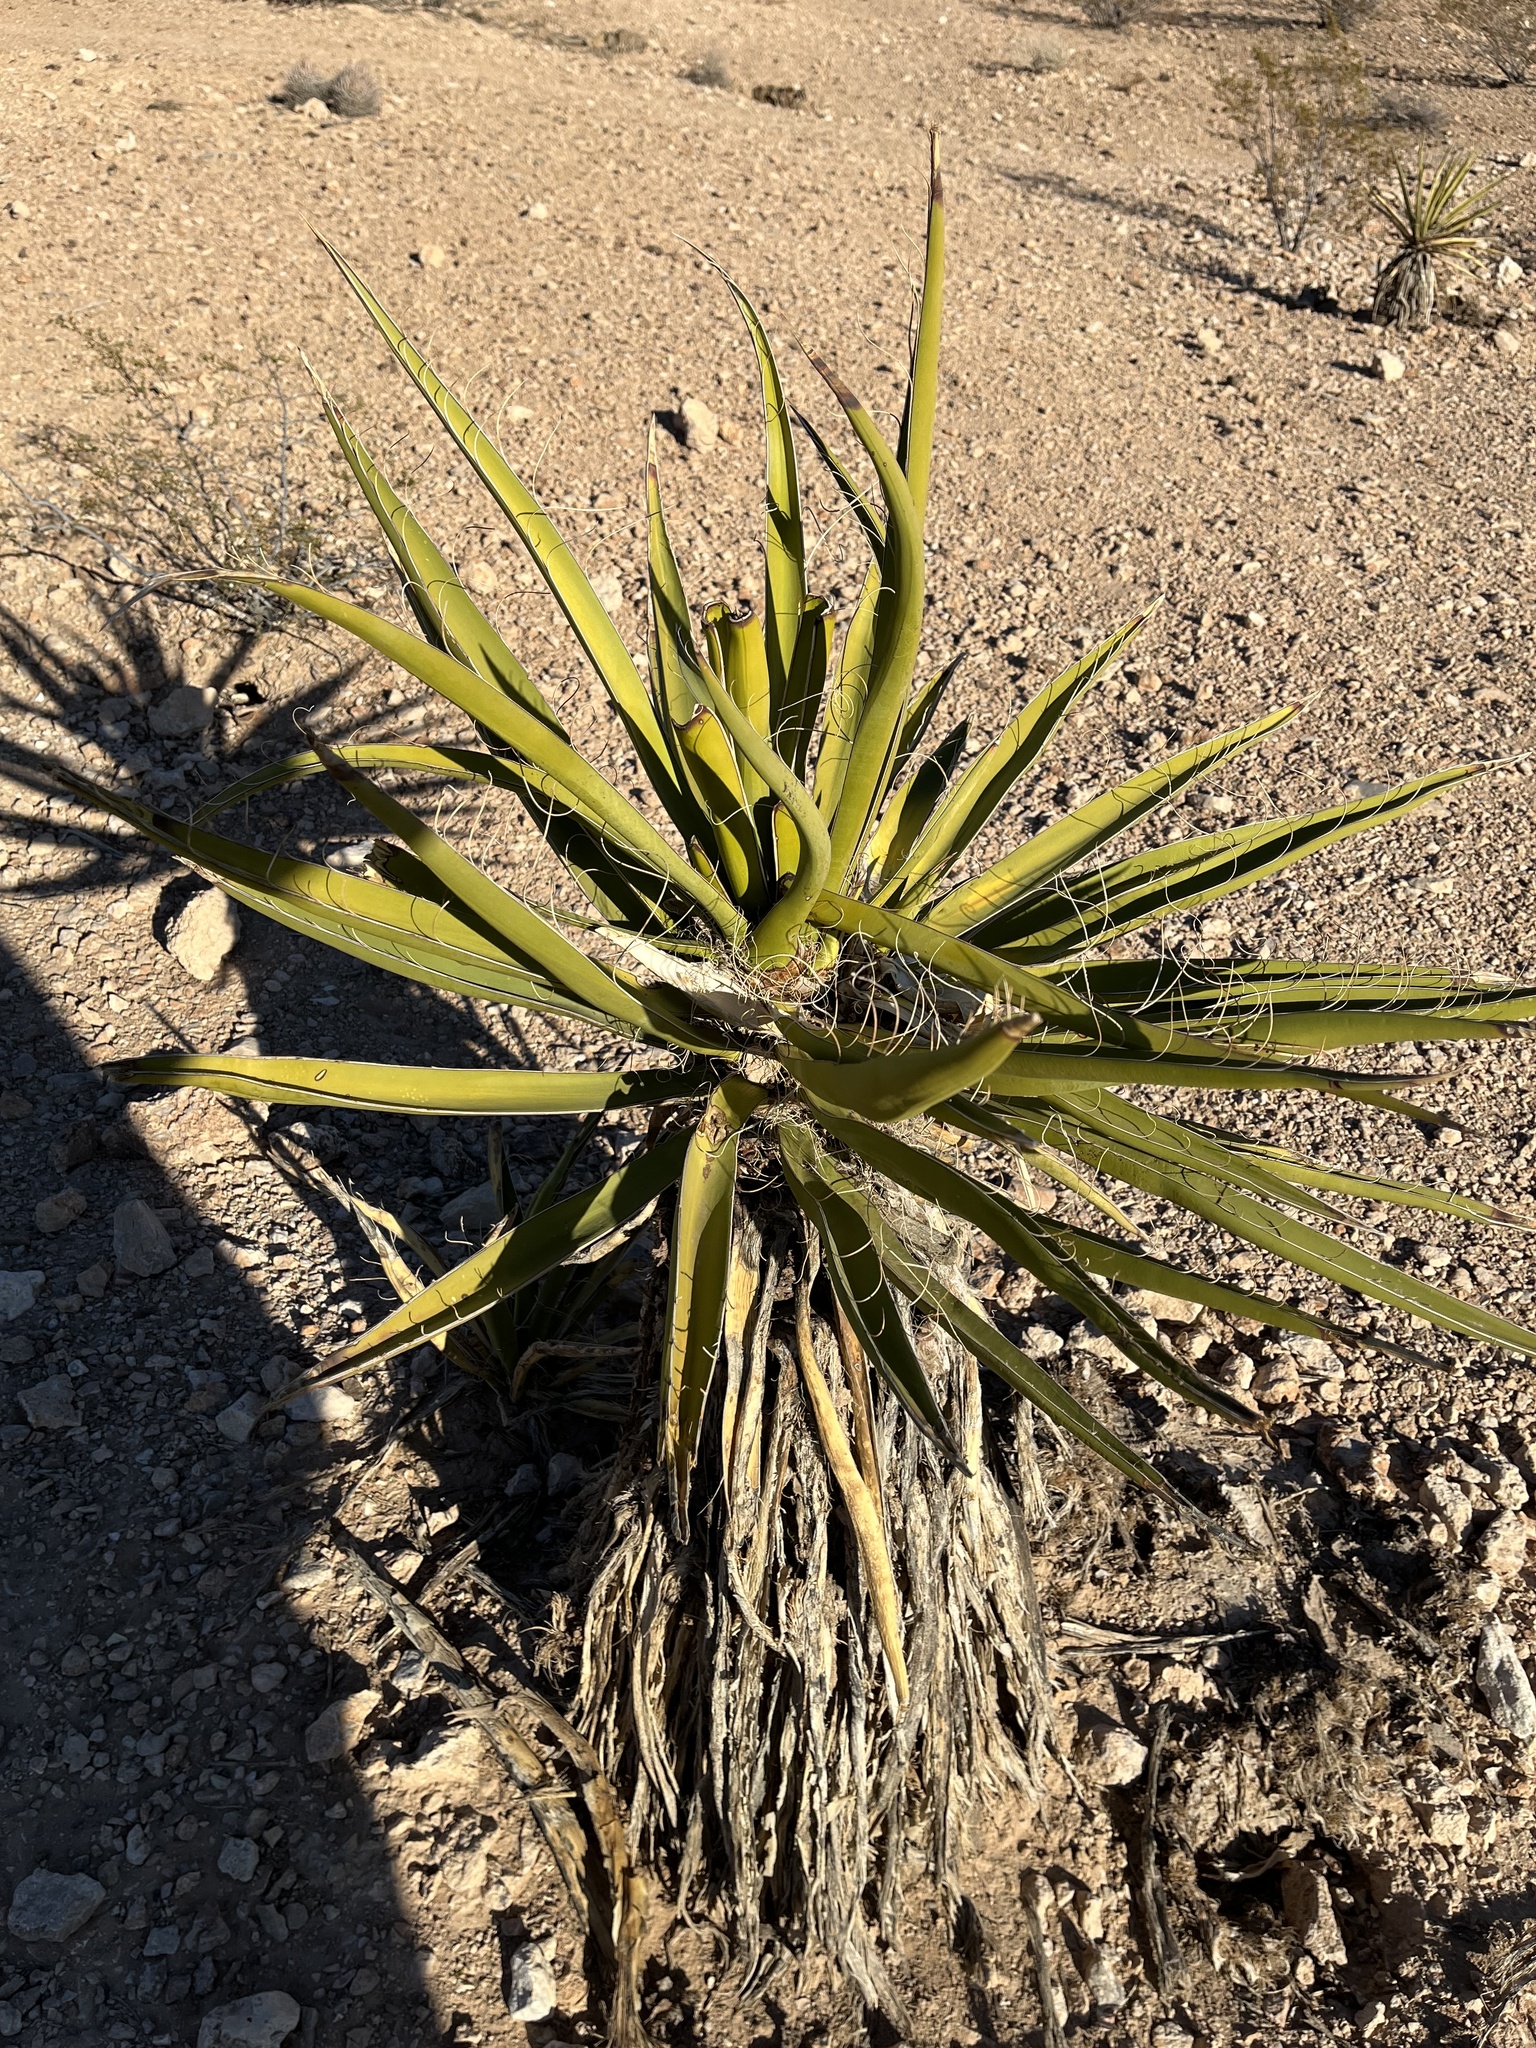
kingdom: Plantae
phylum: Tracheophyta
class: Liliopsida
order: Asparagales
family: Asparagaceae
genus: Yucca
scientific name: Yucca schidigera
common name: Mojave yucca
